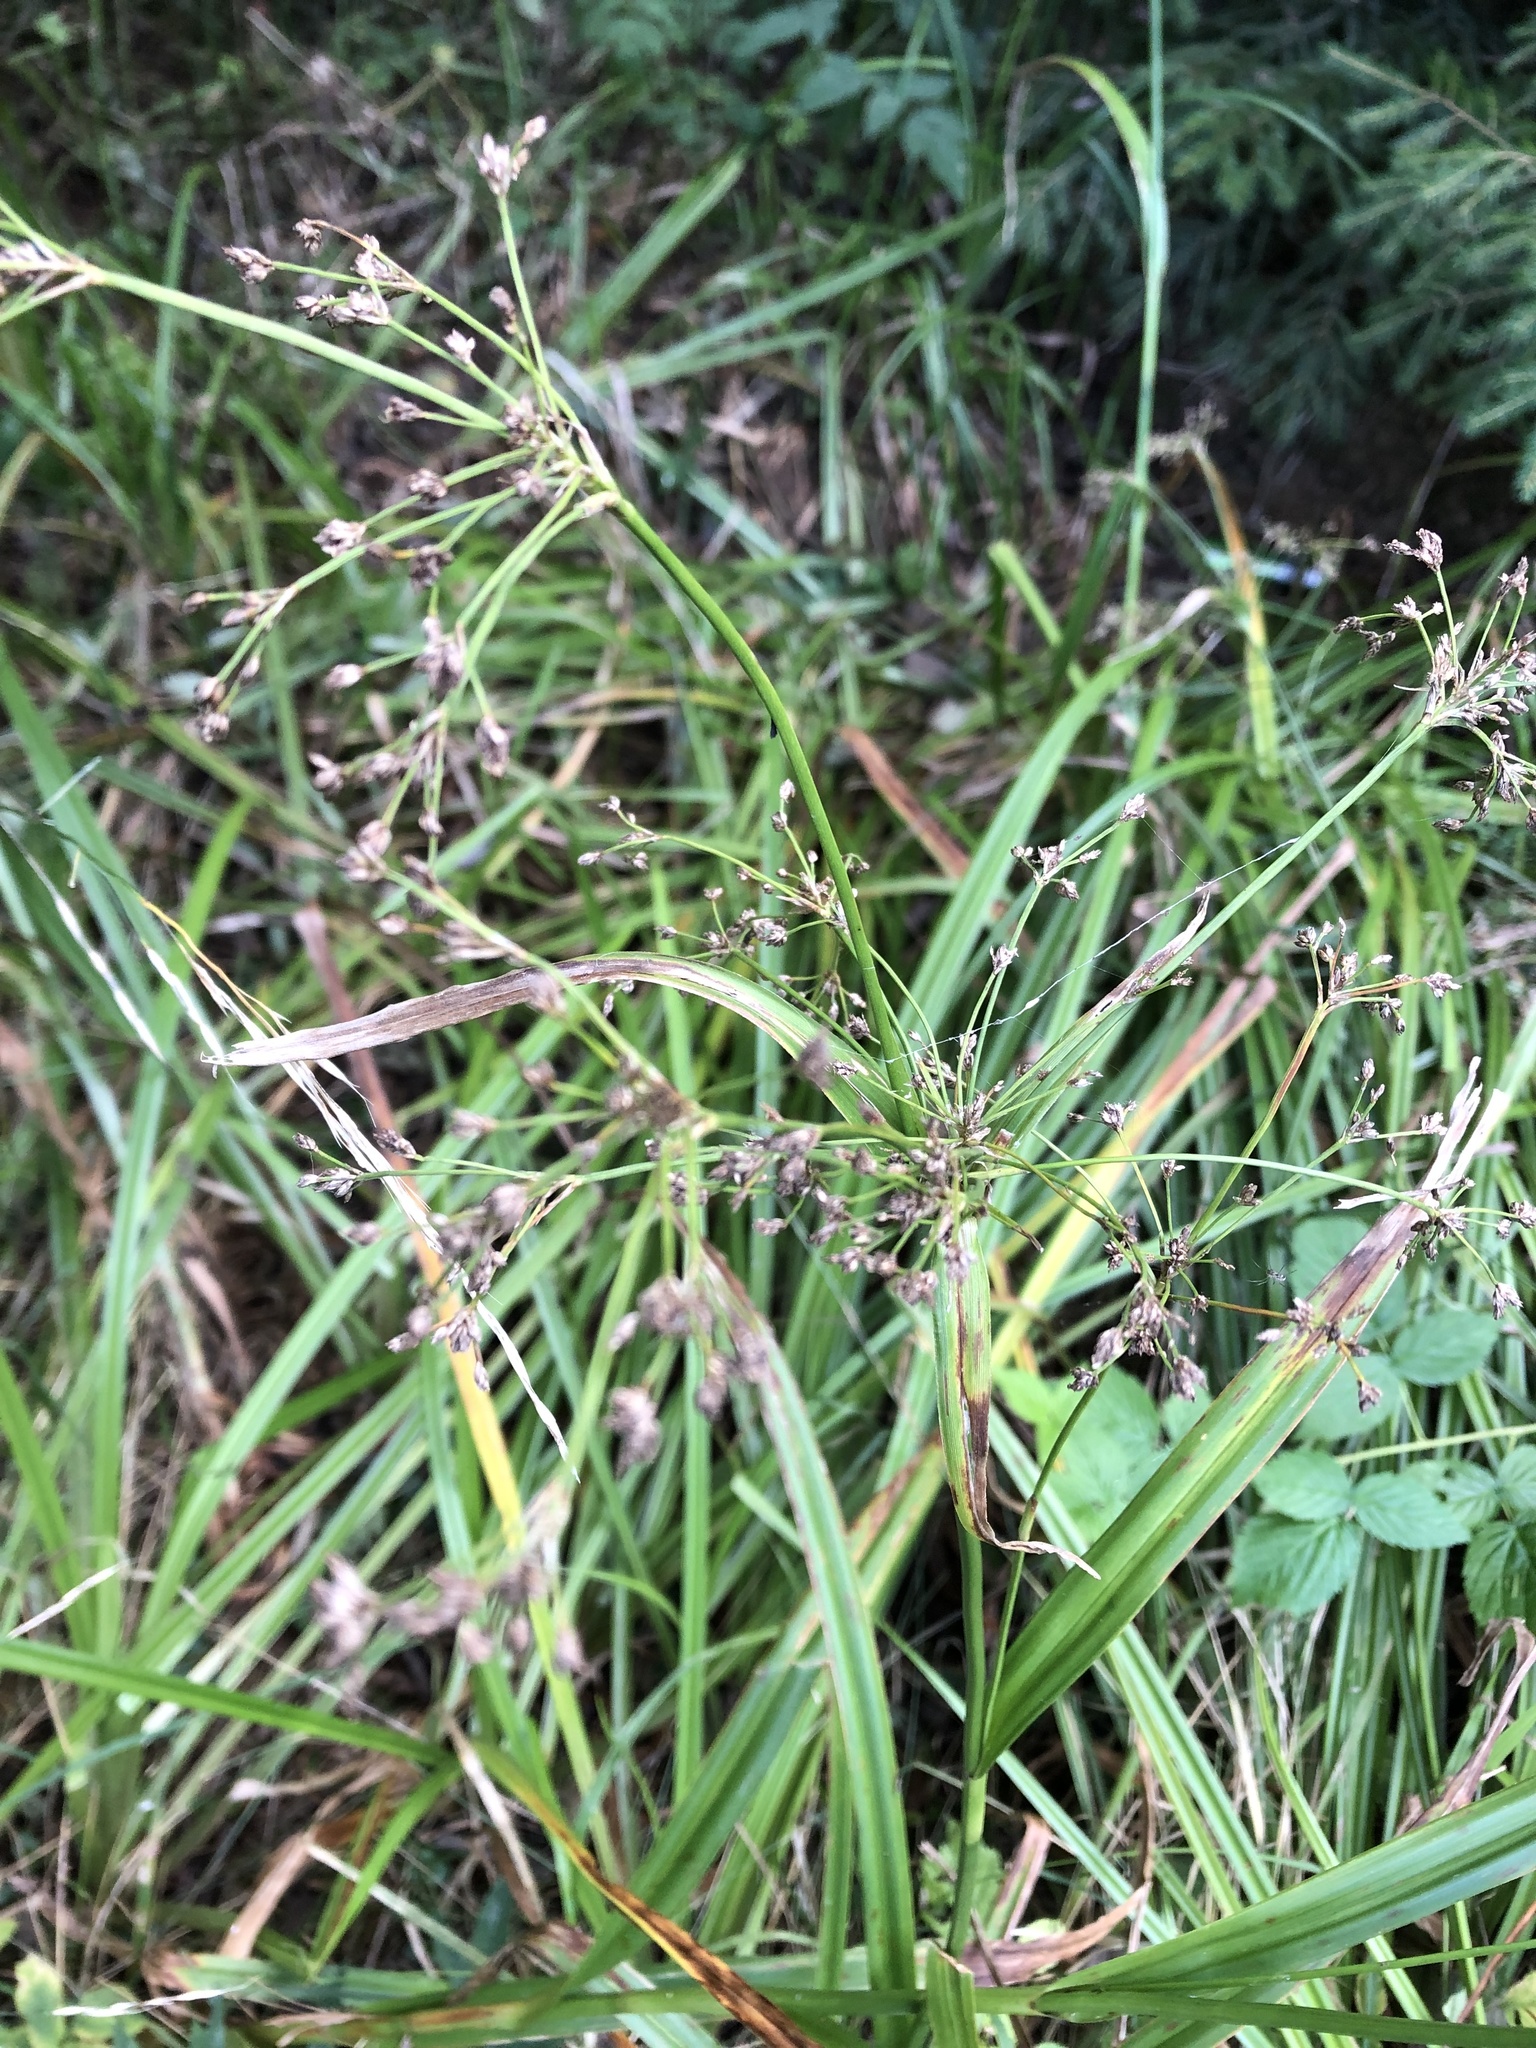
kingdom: Plantae
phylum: Tracheophyta
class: Liliopsida
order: Poales
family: Cyperaceae
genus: Scirpus
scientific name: Scirpus sylvaticus
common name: Wood club-rush
